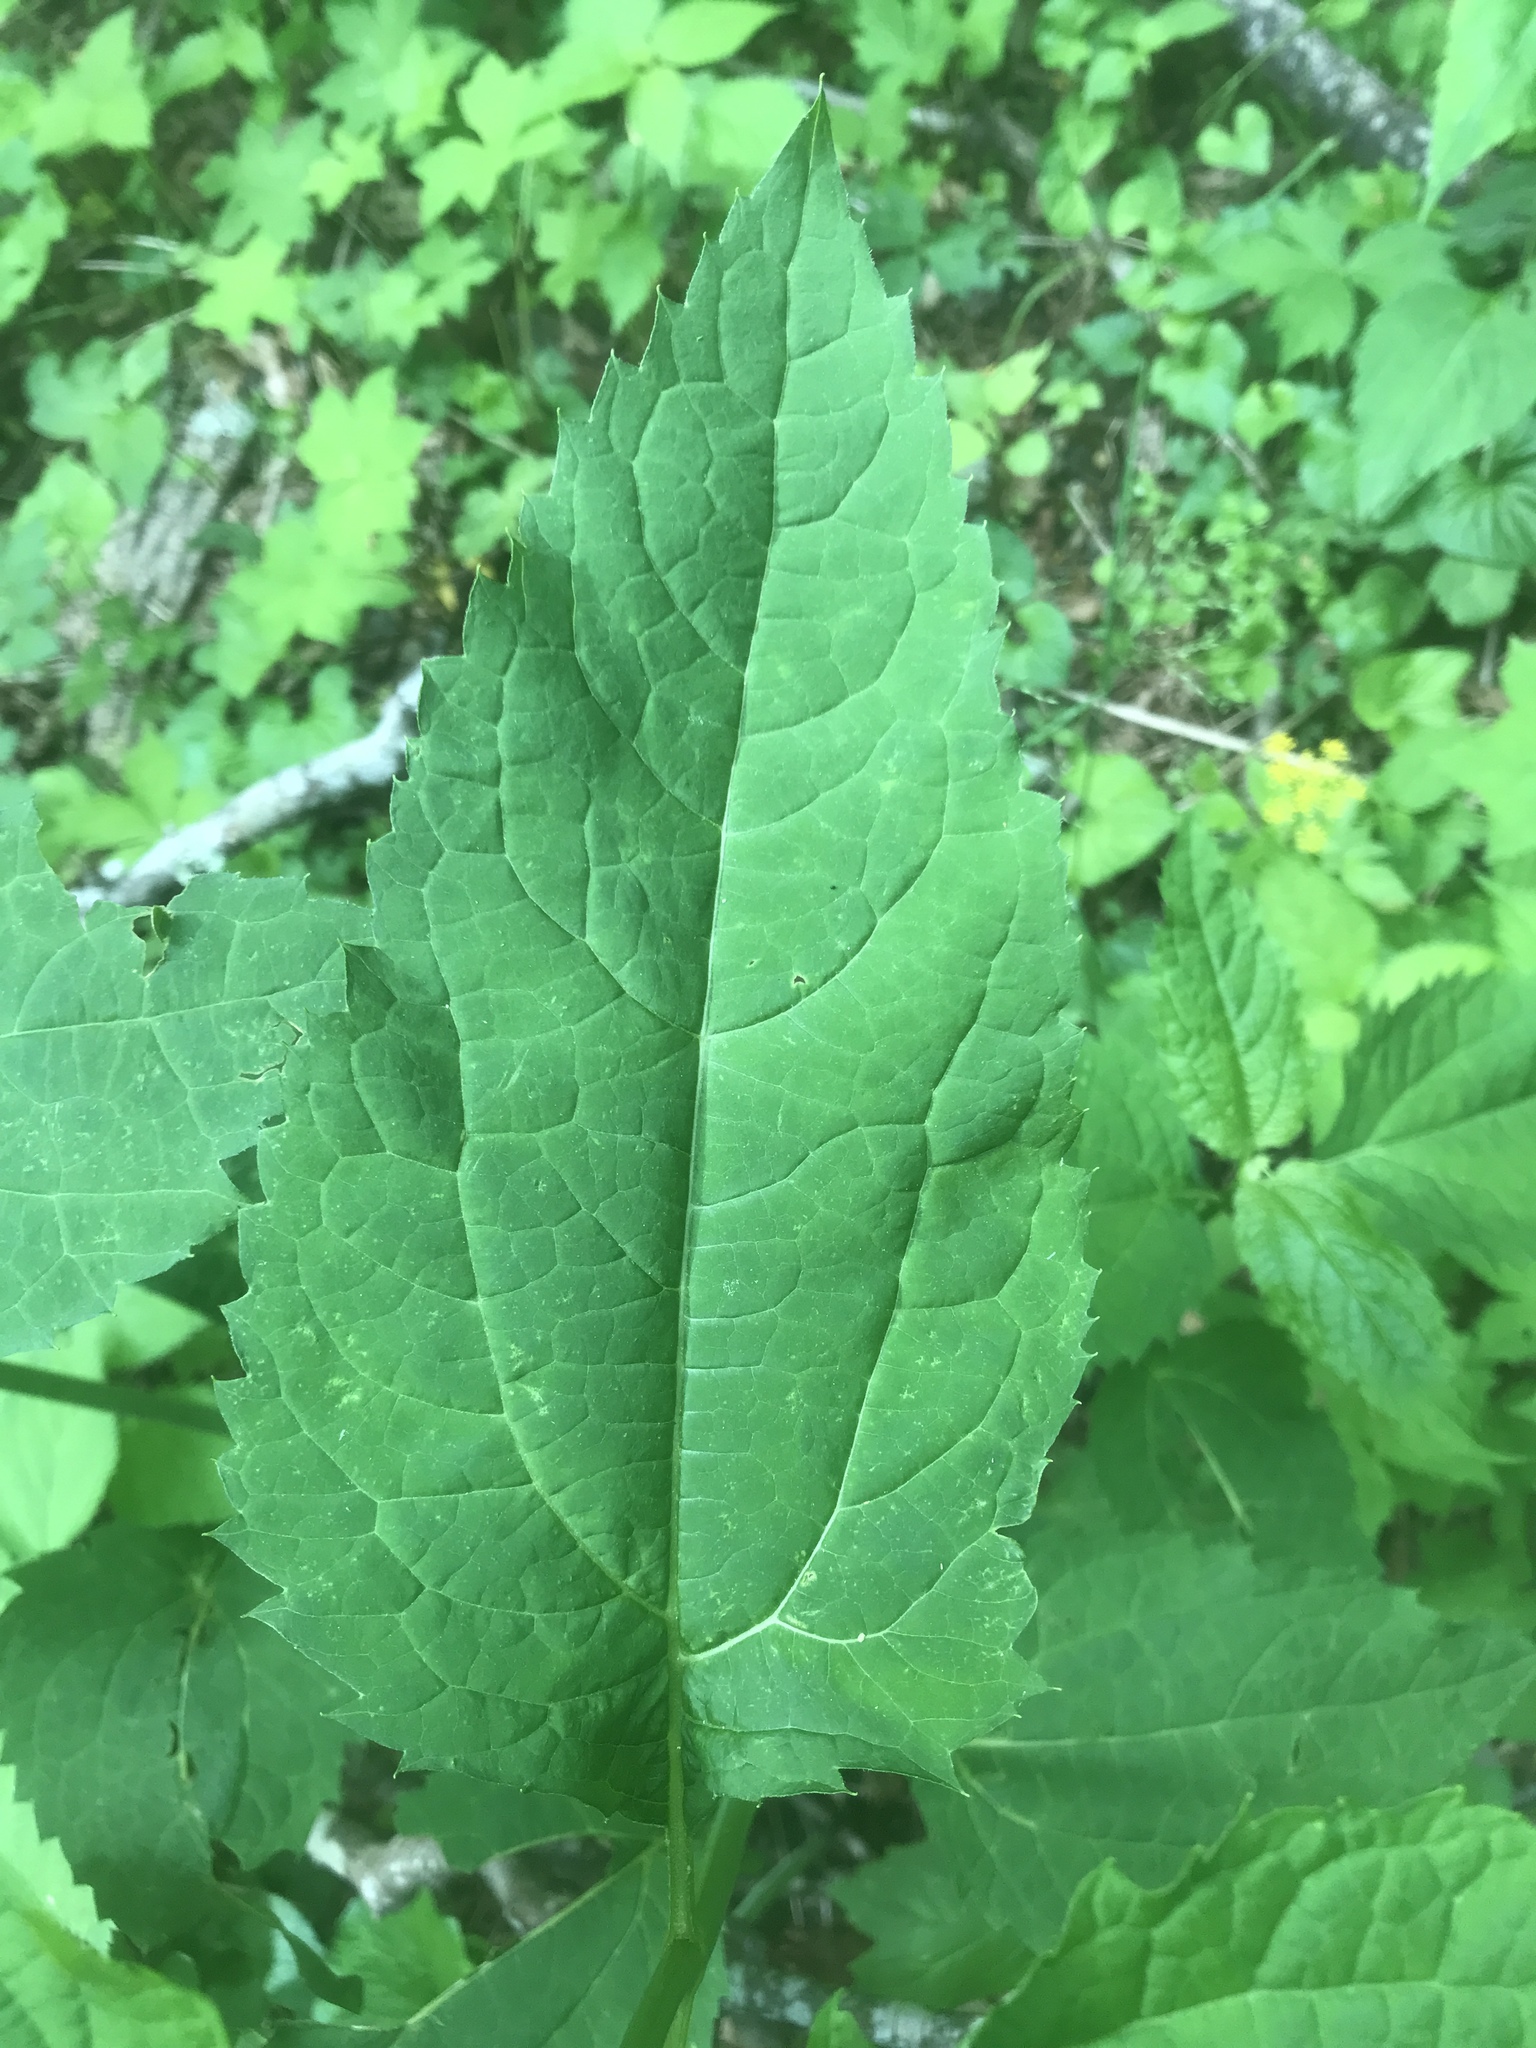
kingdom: Plantae
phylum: Tracheophyta
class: Magnoliopsida
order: Asterales
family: Asteraceae
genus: Heliopsis
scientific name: Heliopsis helianthoides
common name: False sunflower
